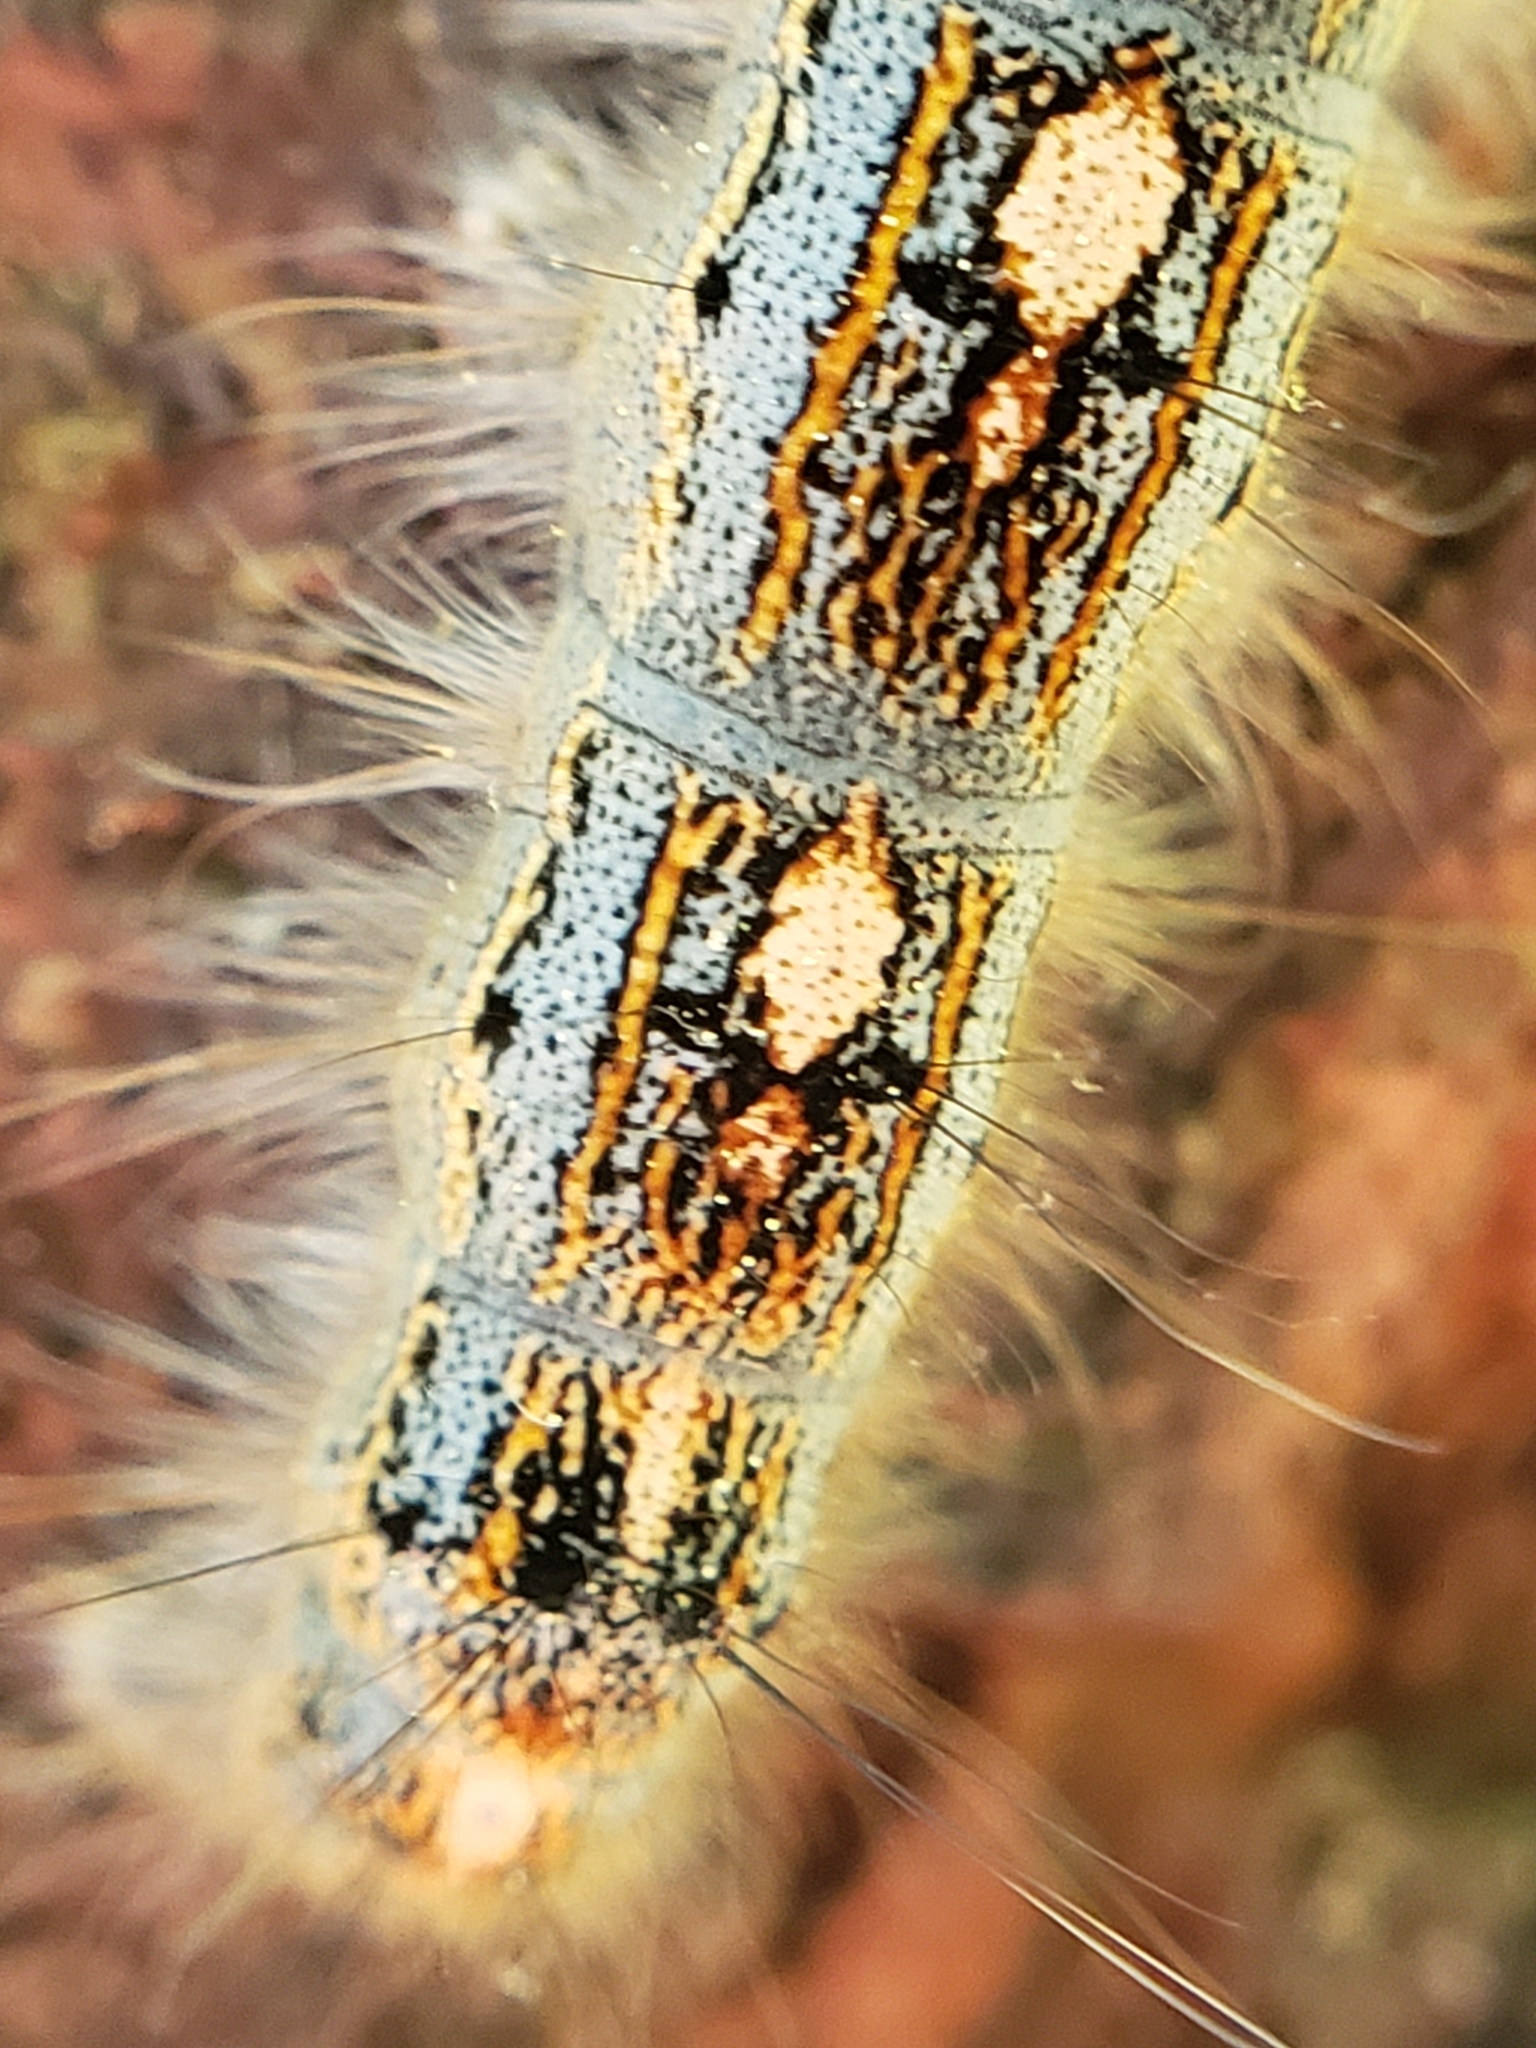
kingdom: Animalia
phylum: Arthropoda
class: Insecta
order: Lepidoptera
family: Lasiocampidae
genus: Malacosoma
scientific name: Malacosoma disstria
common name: Forest tent caterpillar
